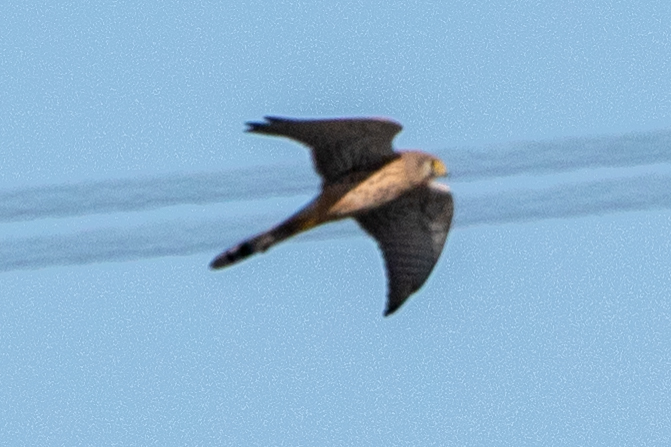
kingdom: Animalia
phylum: Chordata
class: Aves
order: Falconiformes
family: Falconidae
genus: Falco
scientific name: Falco tinnunculus
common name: Common kestrel
